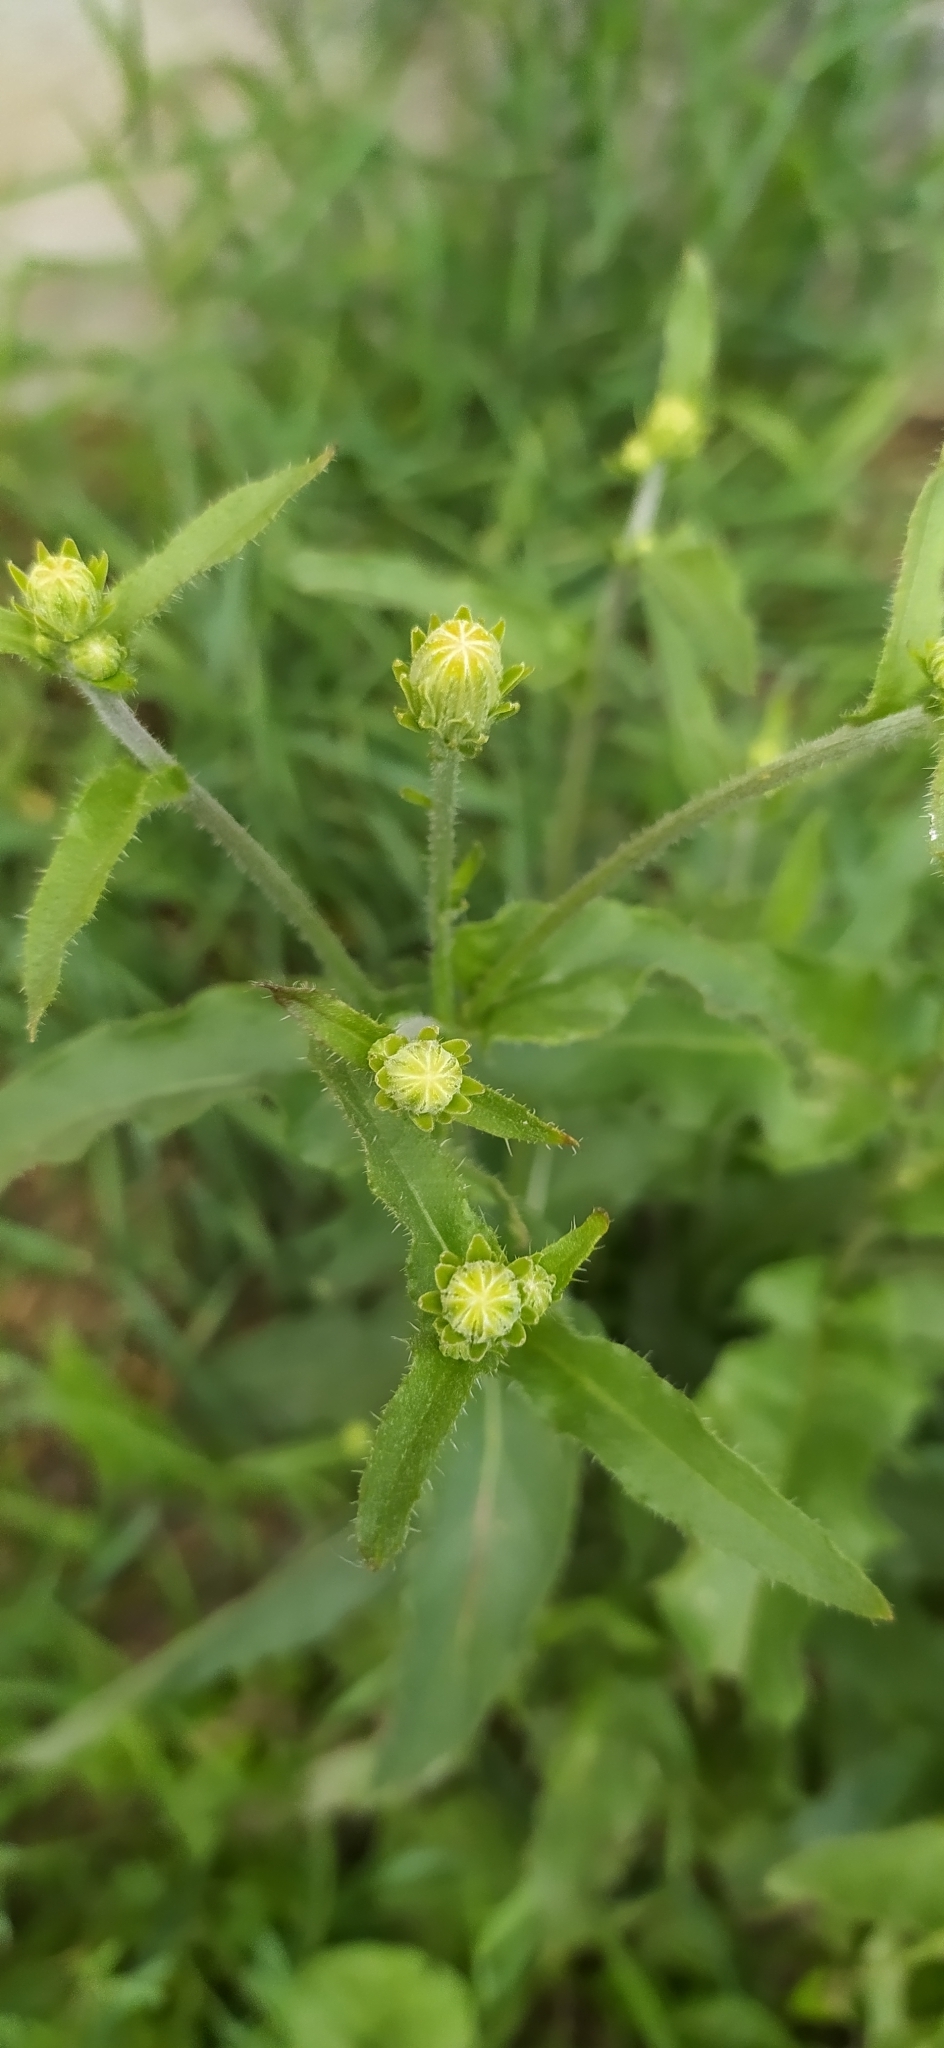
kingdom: Plantae
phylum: Tracheophyta
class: Magnoliopsida
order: Asterales
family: Asteraceae
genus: Cichorium
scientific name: Cichorium intybus
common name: Chicory
